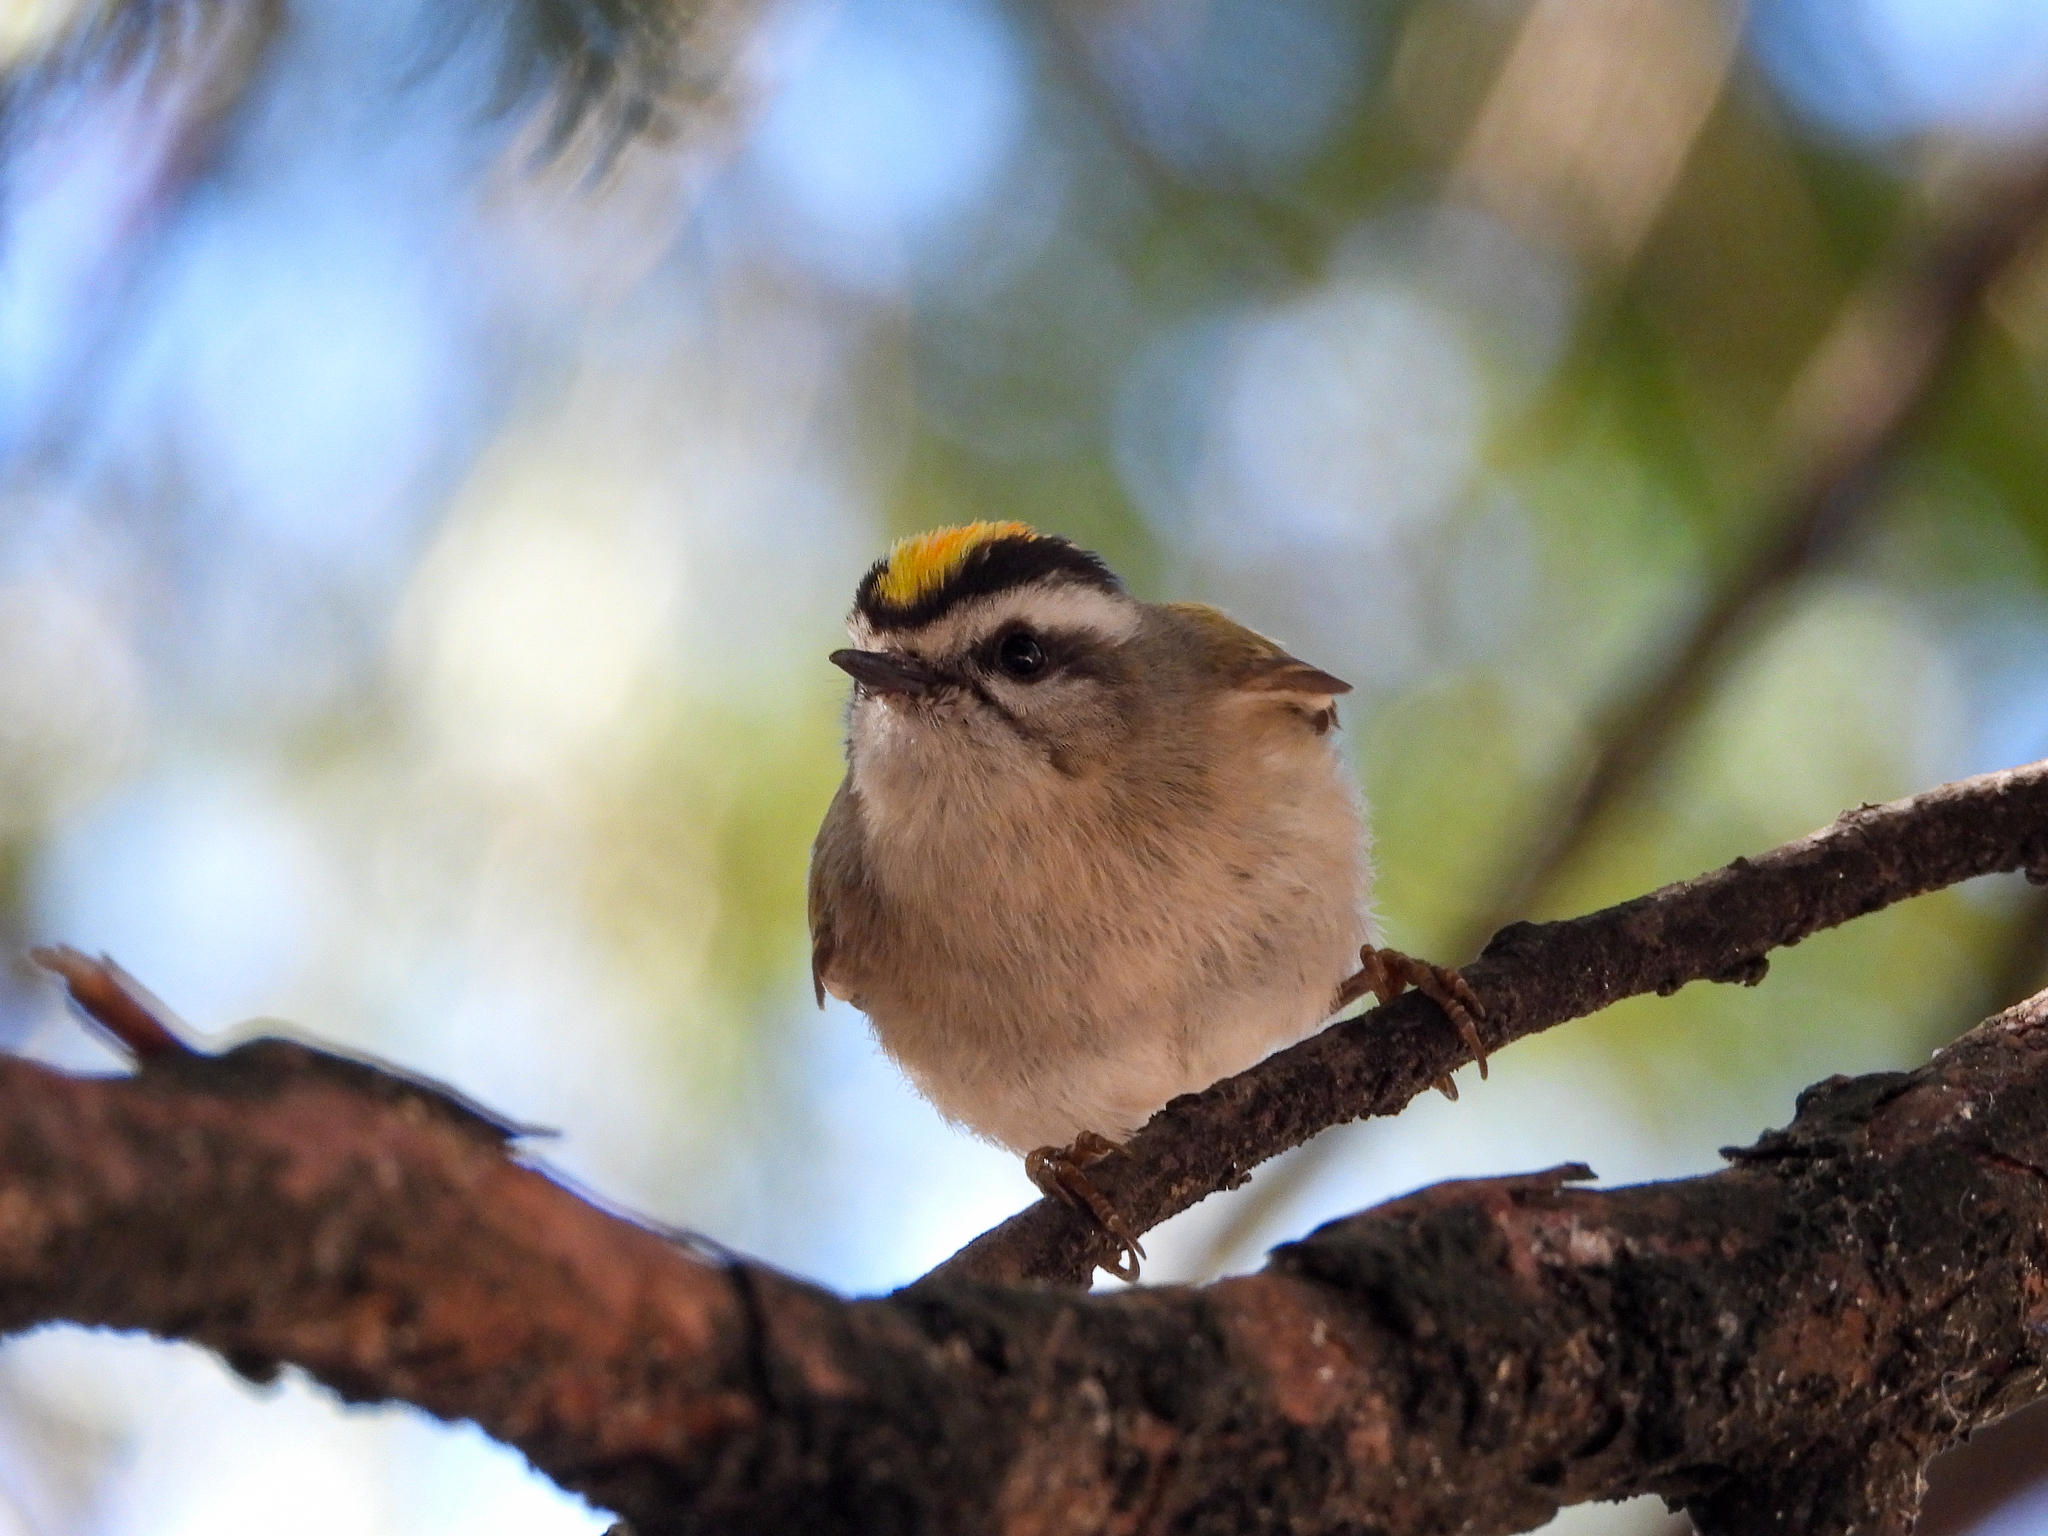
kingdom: Animalia
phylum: Chordata
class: Aves
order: Passeriformes
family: Regulidae
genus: Regulus
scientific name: Regulus satrapa
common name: Golden-crowned kinglet
